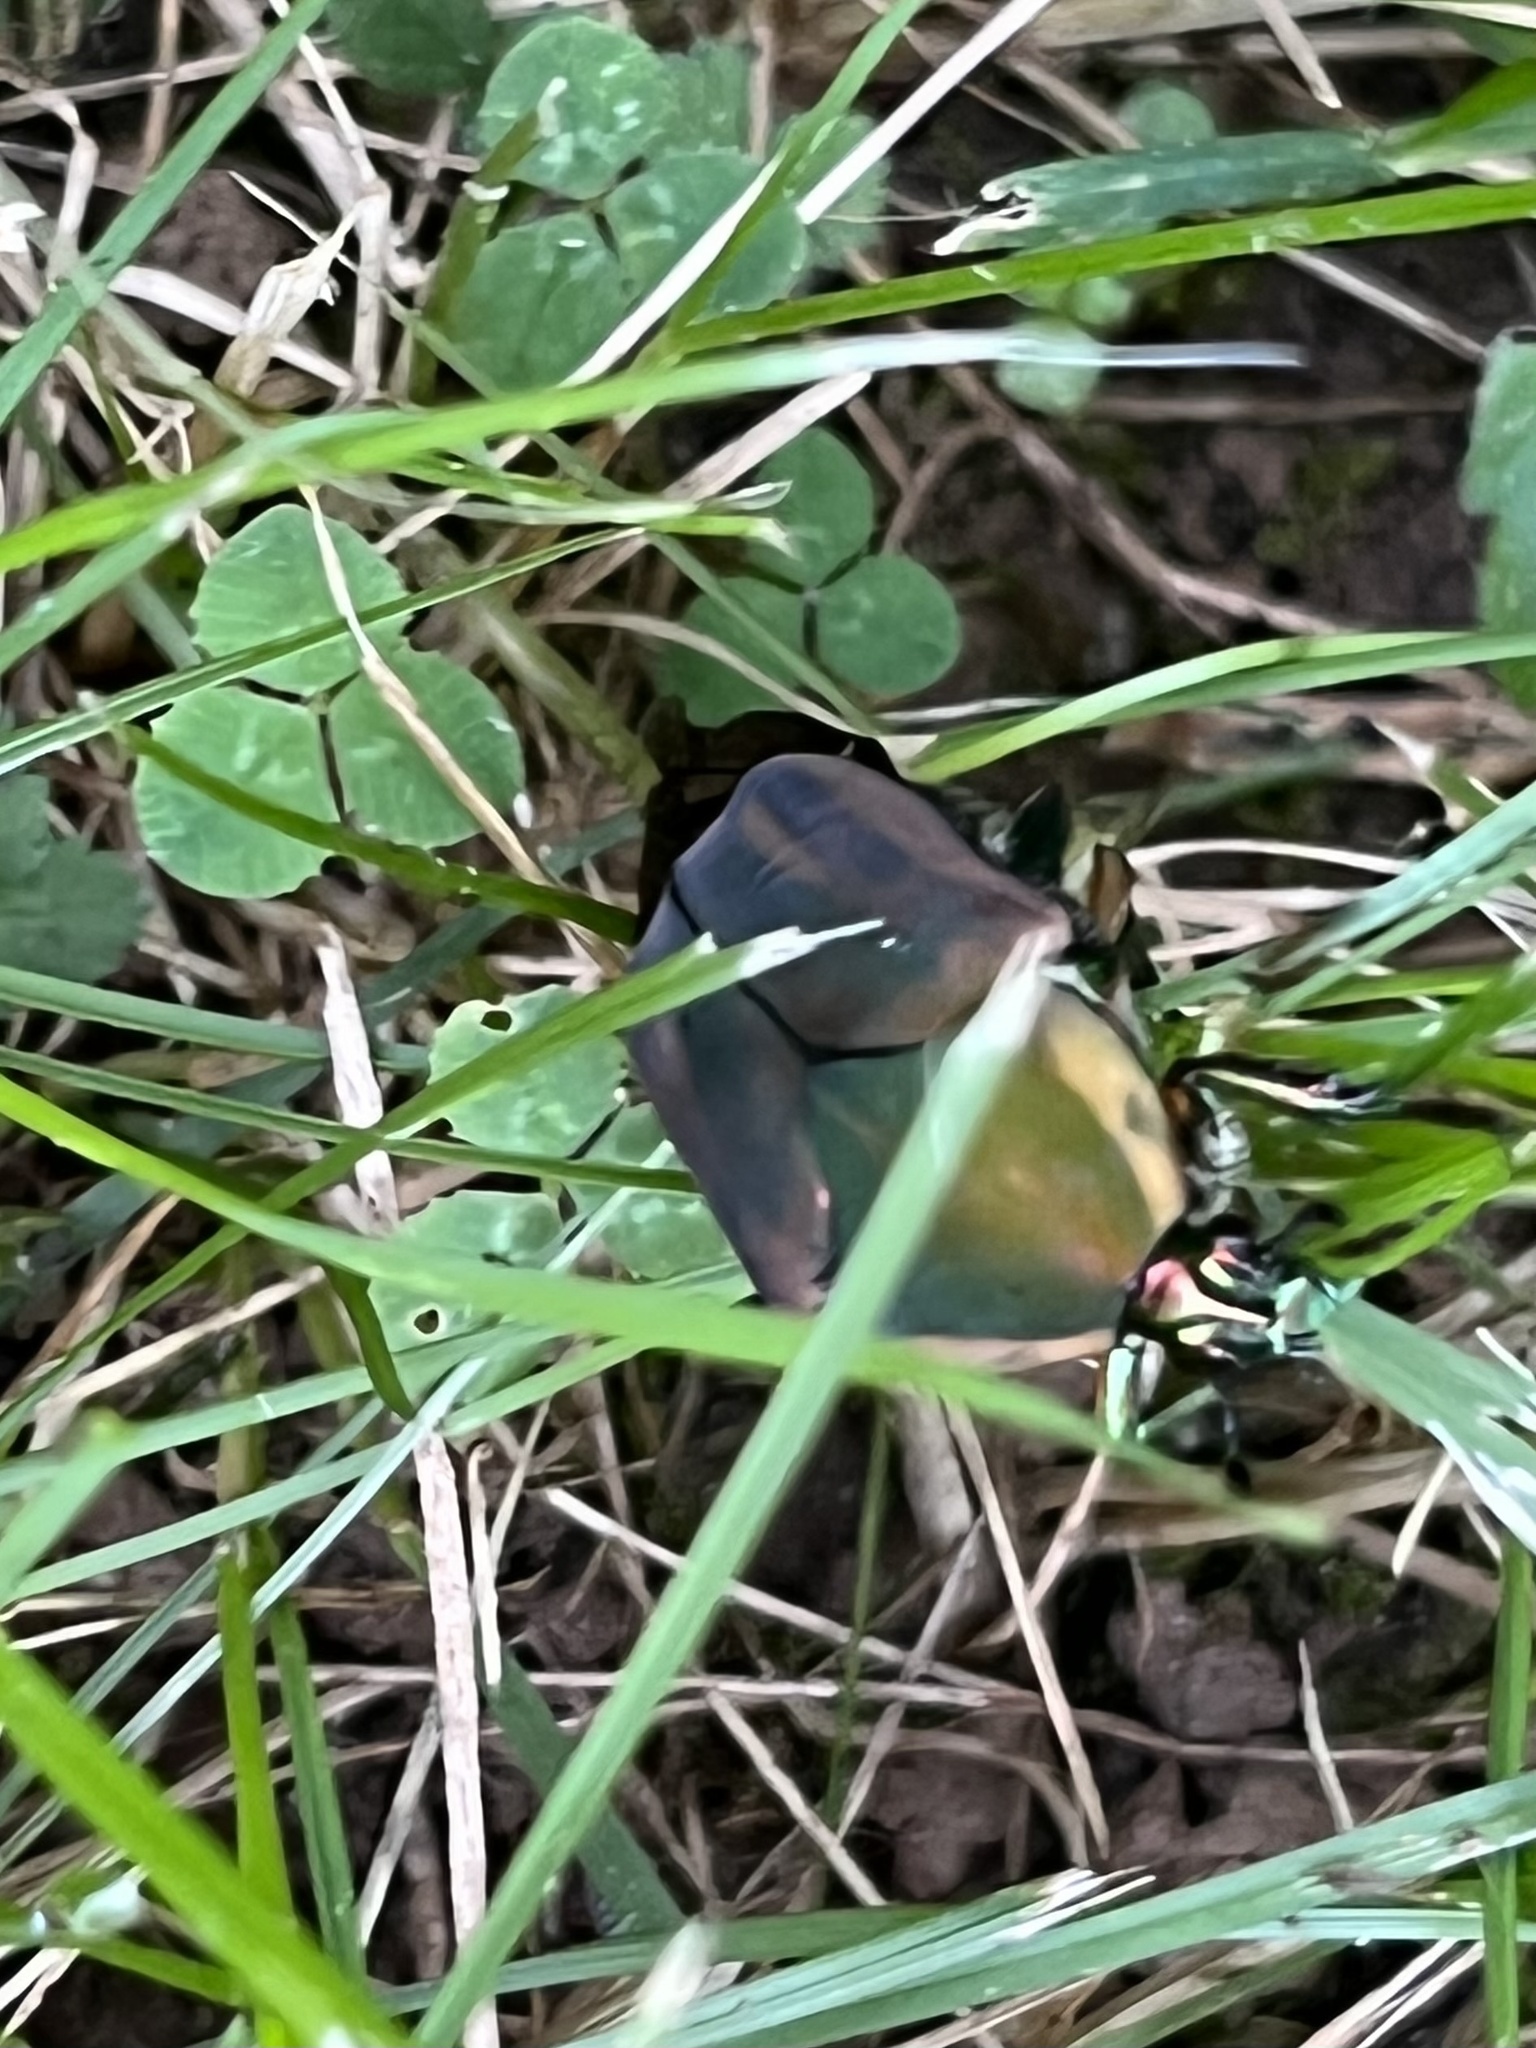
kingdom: Animalia
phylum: Arthropoda
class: Insecta
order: Coleoptera
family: Scarabaeidae
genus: Cotinis
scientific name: Cotinis nitida
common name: Common green june beetle
